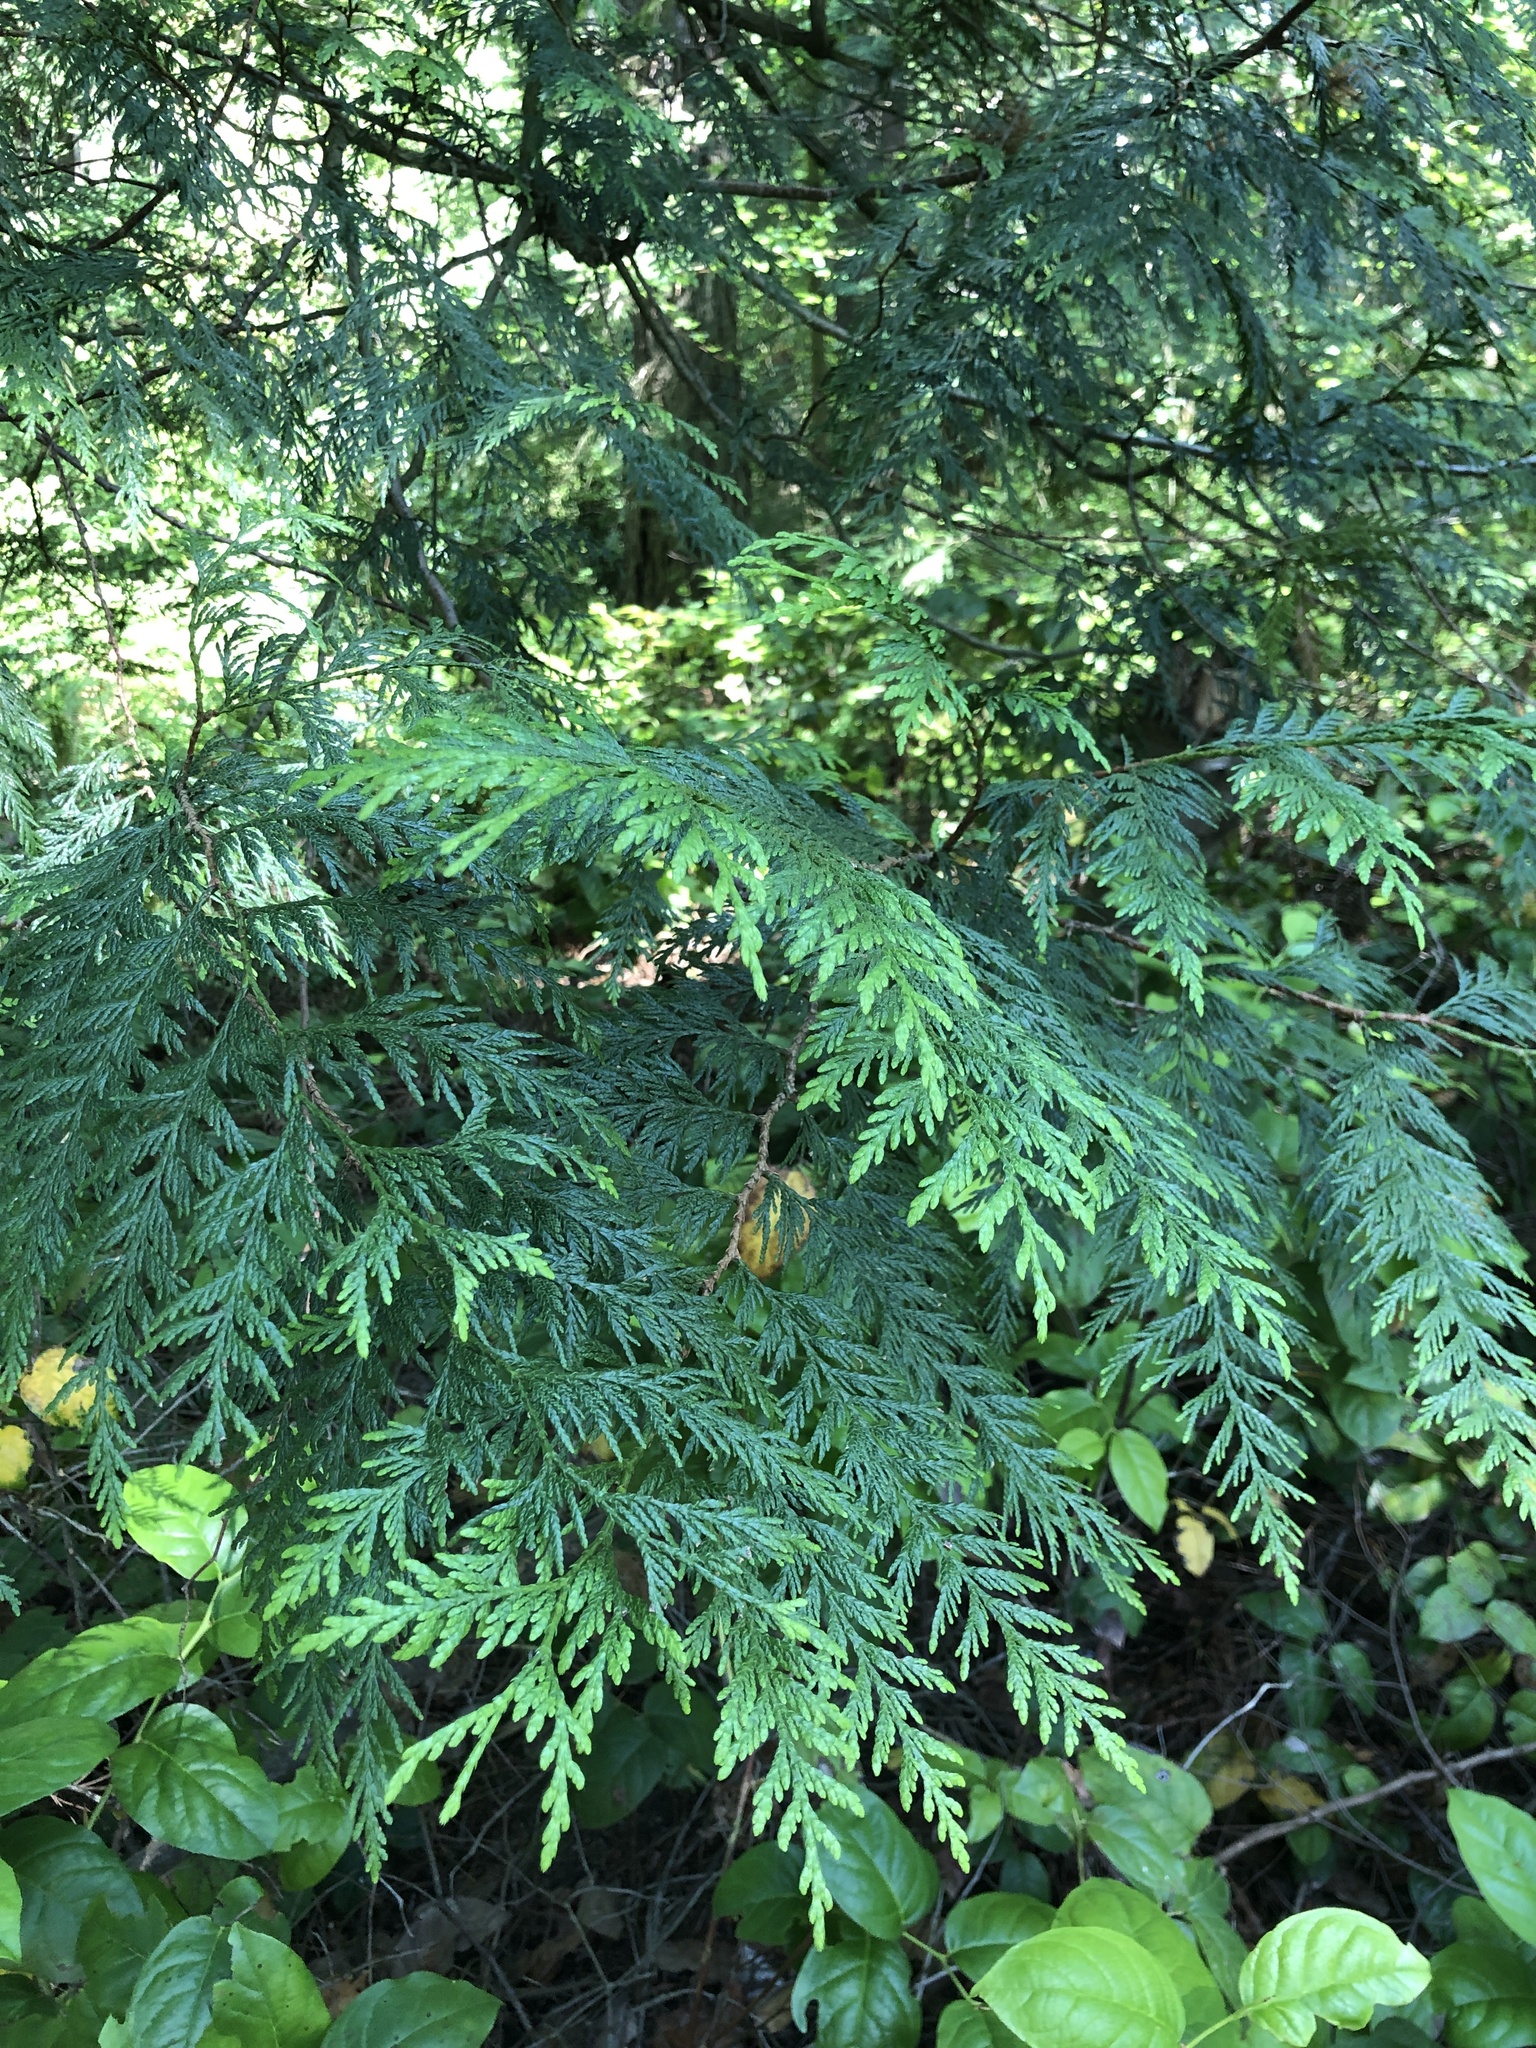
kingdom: Plantae
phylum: Tracheophyta
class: Pinopsida
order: Pinales
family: Cupressaceae
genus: Thuja
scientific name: Thuja plicata
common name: Western red-cedar
